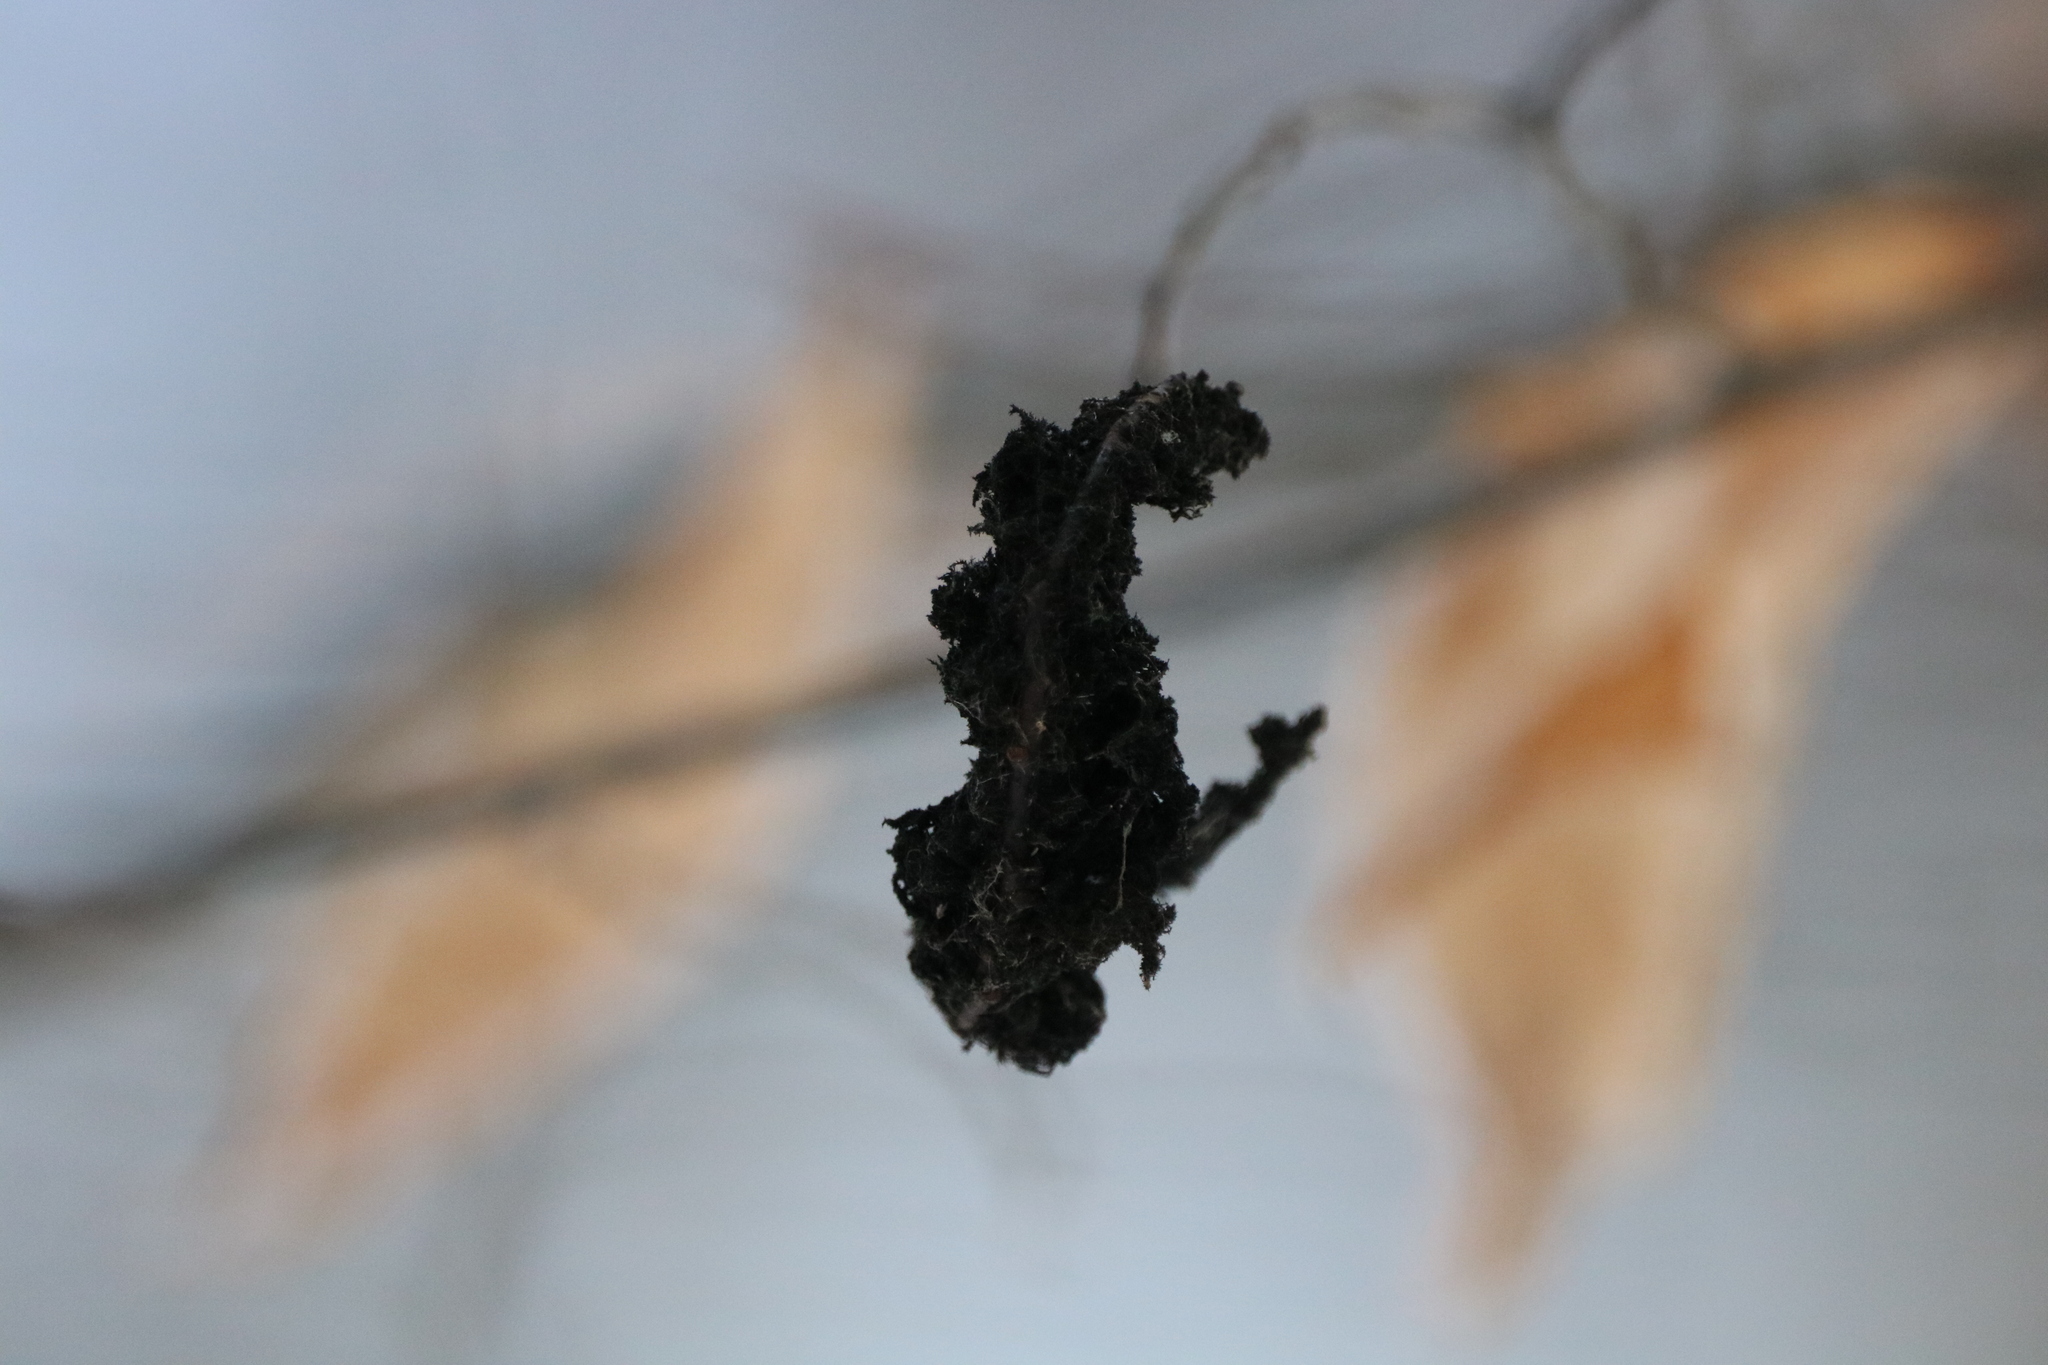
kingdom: Fungi
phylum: Ascomycota
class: Dothideomycetes
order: Capnodiales
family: Capnodiaceae
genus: Scorias
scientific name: Scorias spongiosa
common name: Black sooty mold
